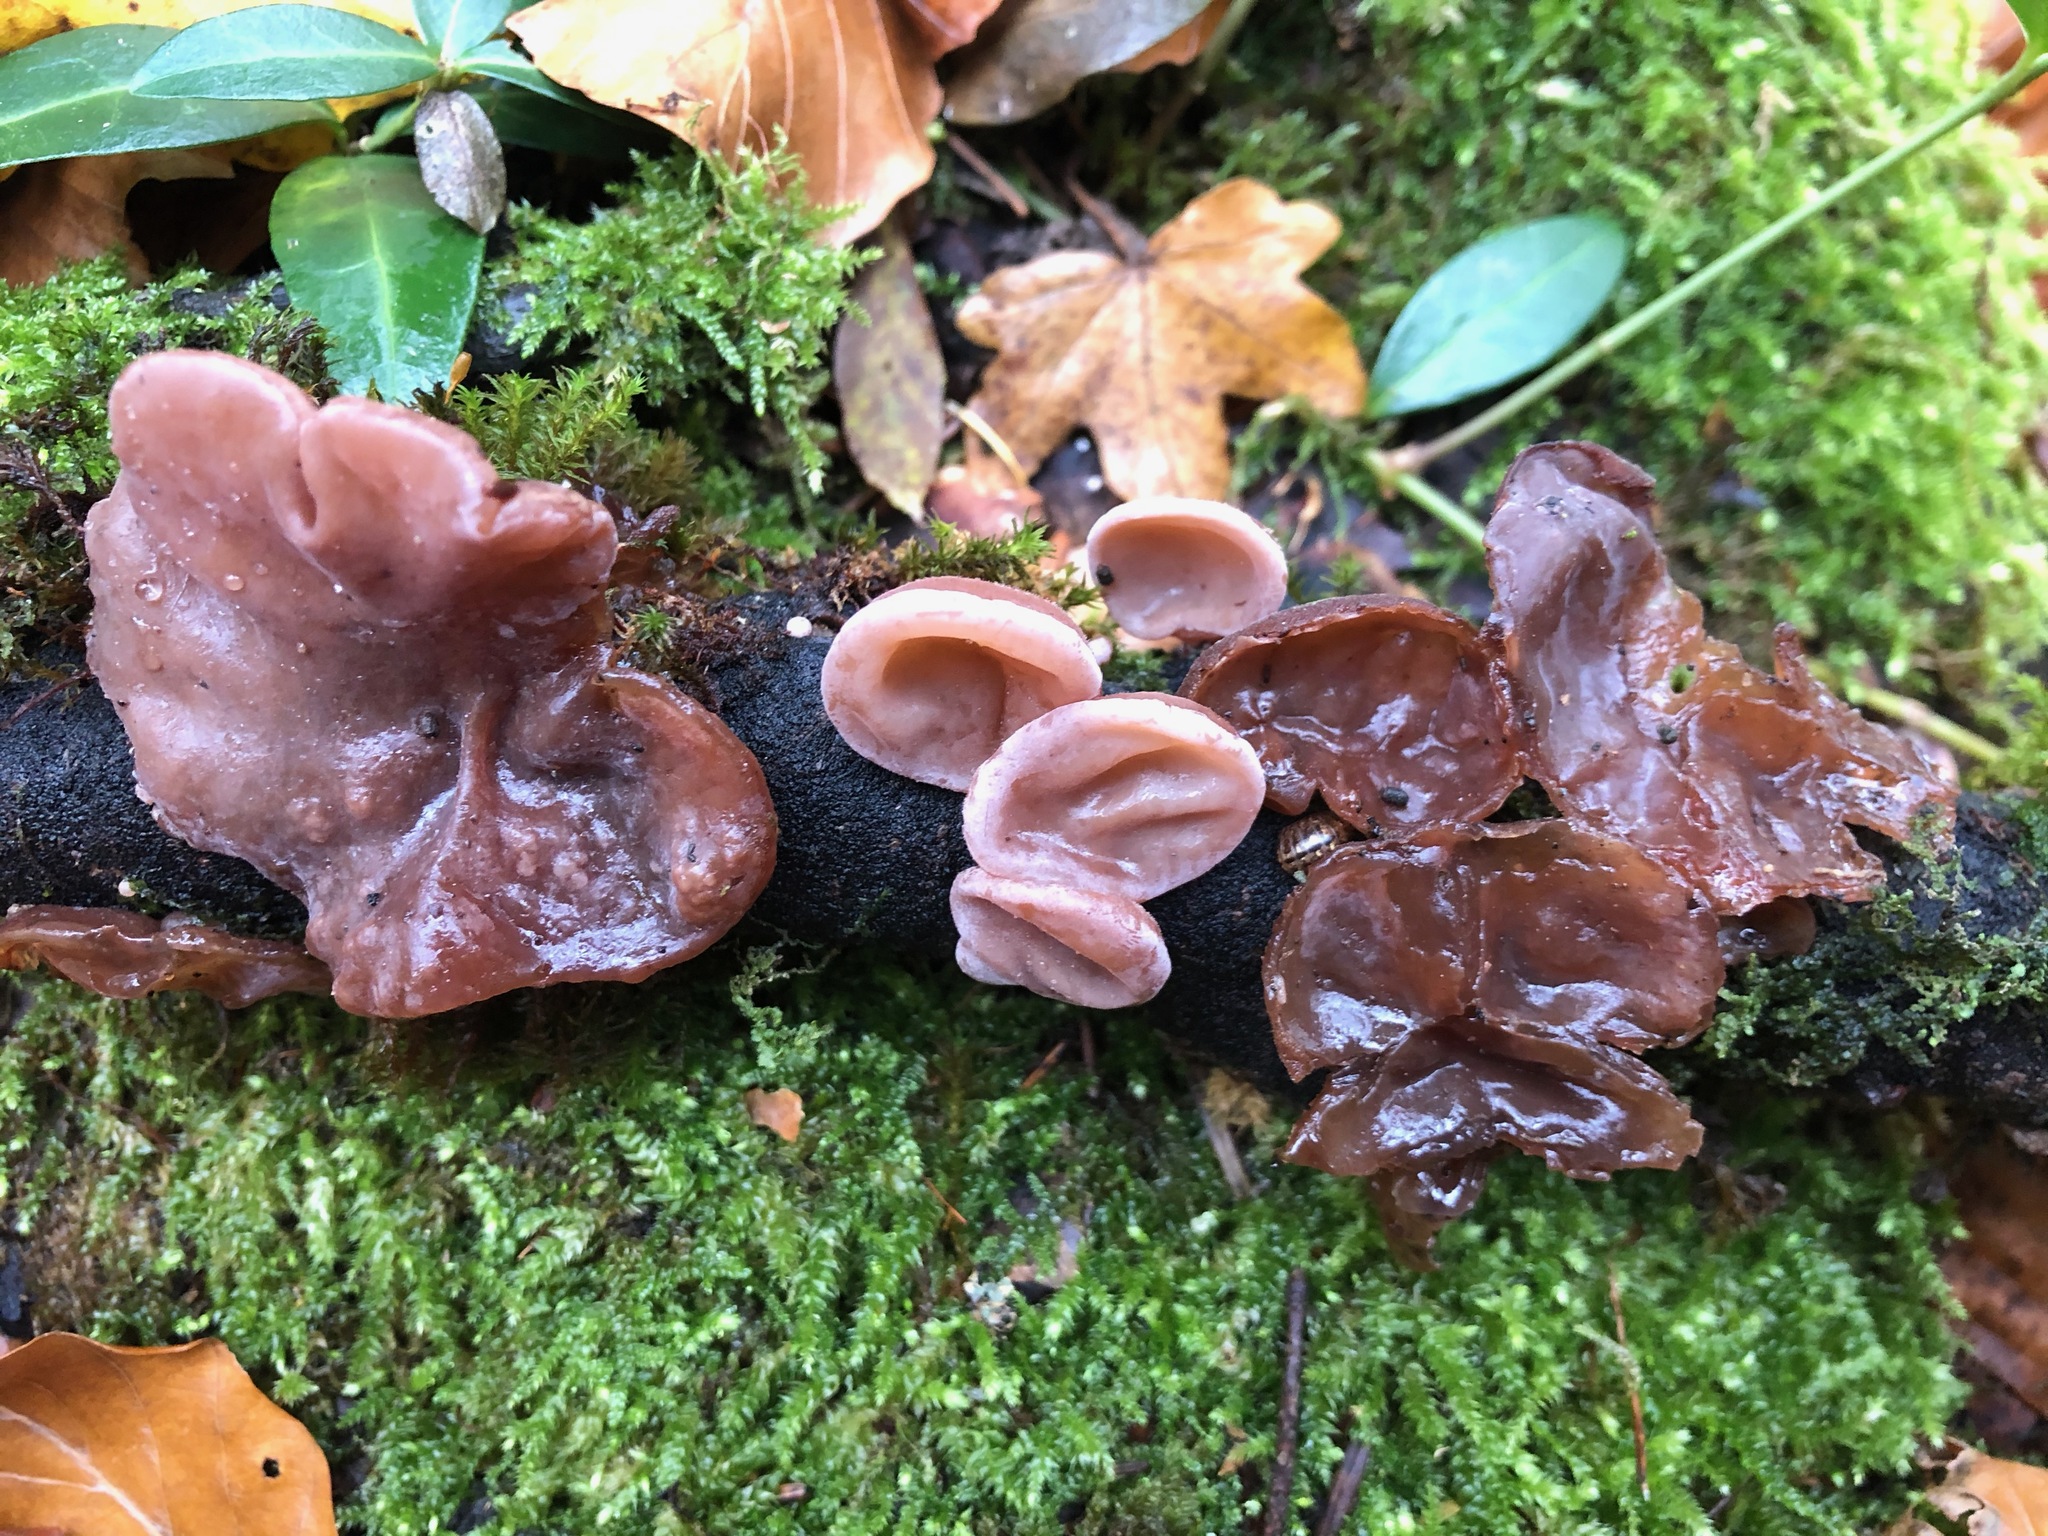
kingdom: Fungi
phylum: Basidiomycota
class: Agaricomycetes
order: Auriculariales
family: Auriculariaceae
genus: Auricularia
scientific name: Auricularia auricula-judae
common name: Jelly ear
